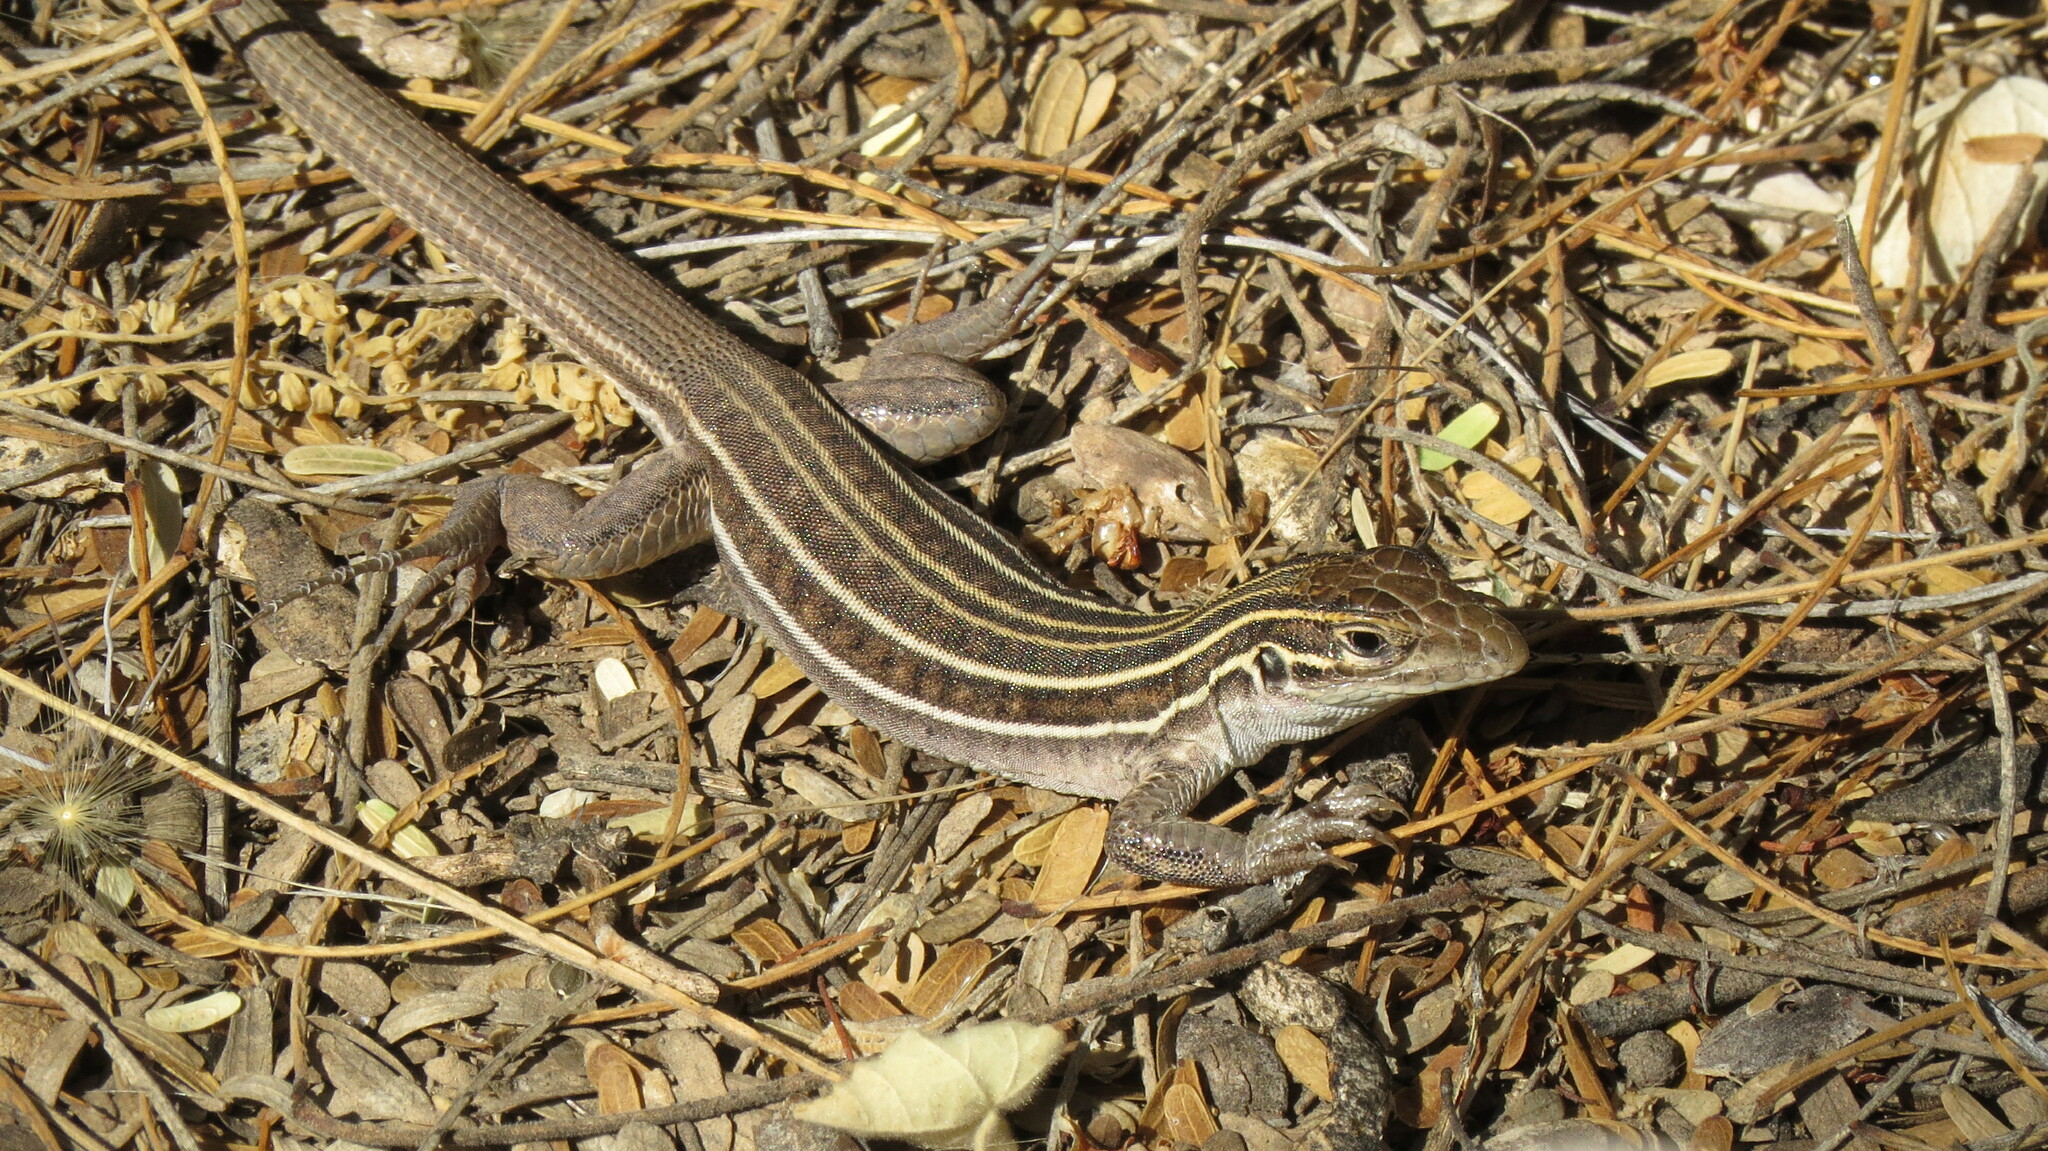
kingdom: Animalia
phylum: Chordata
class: Squamata
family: Teiidae
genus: Aspidoscelis
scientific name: Aspidoscelis sonorae
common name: Sonoran spotted whiptail
